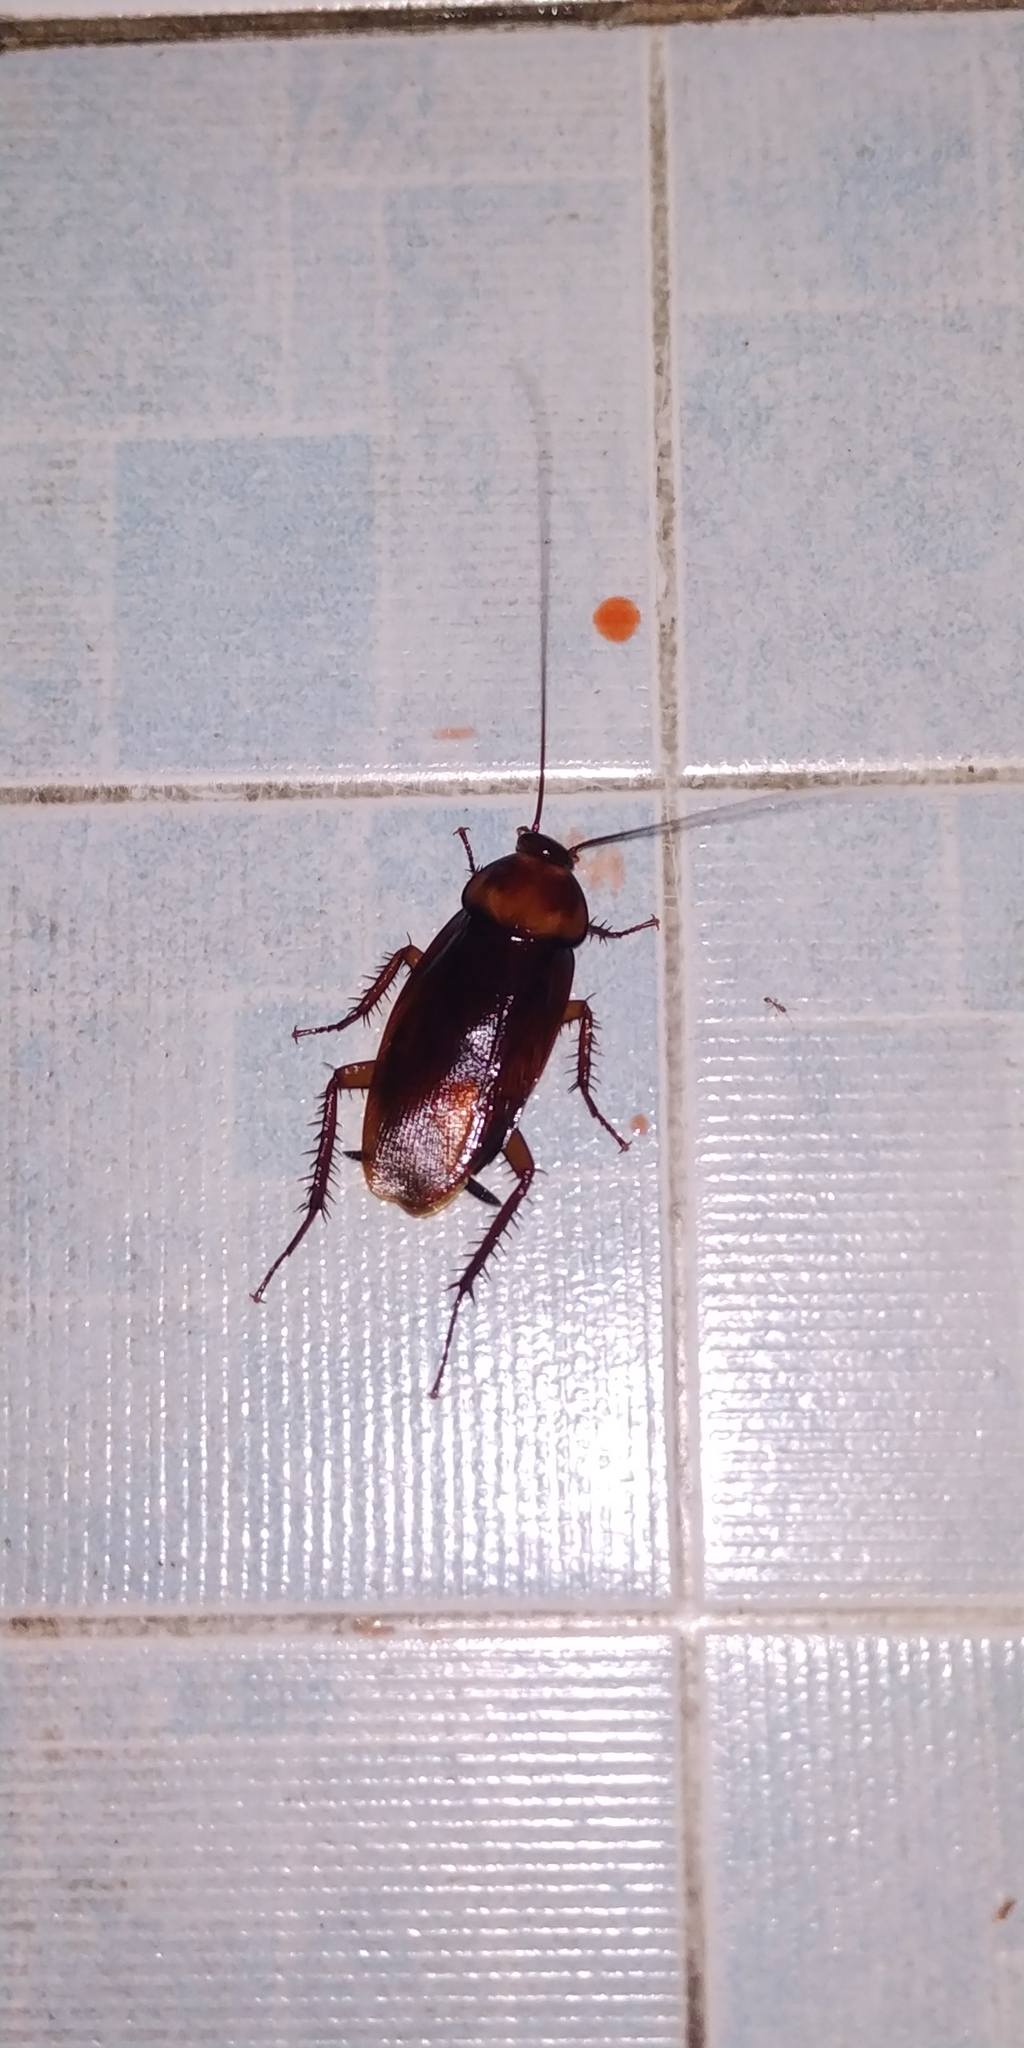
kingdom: Animalia
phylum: Arthropoda
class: Insecta
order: Blattodea
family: Blattidae
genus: Periplaneta
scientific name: Periplaneta brunnea
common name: Brown cockroach
